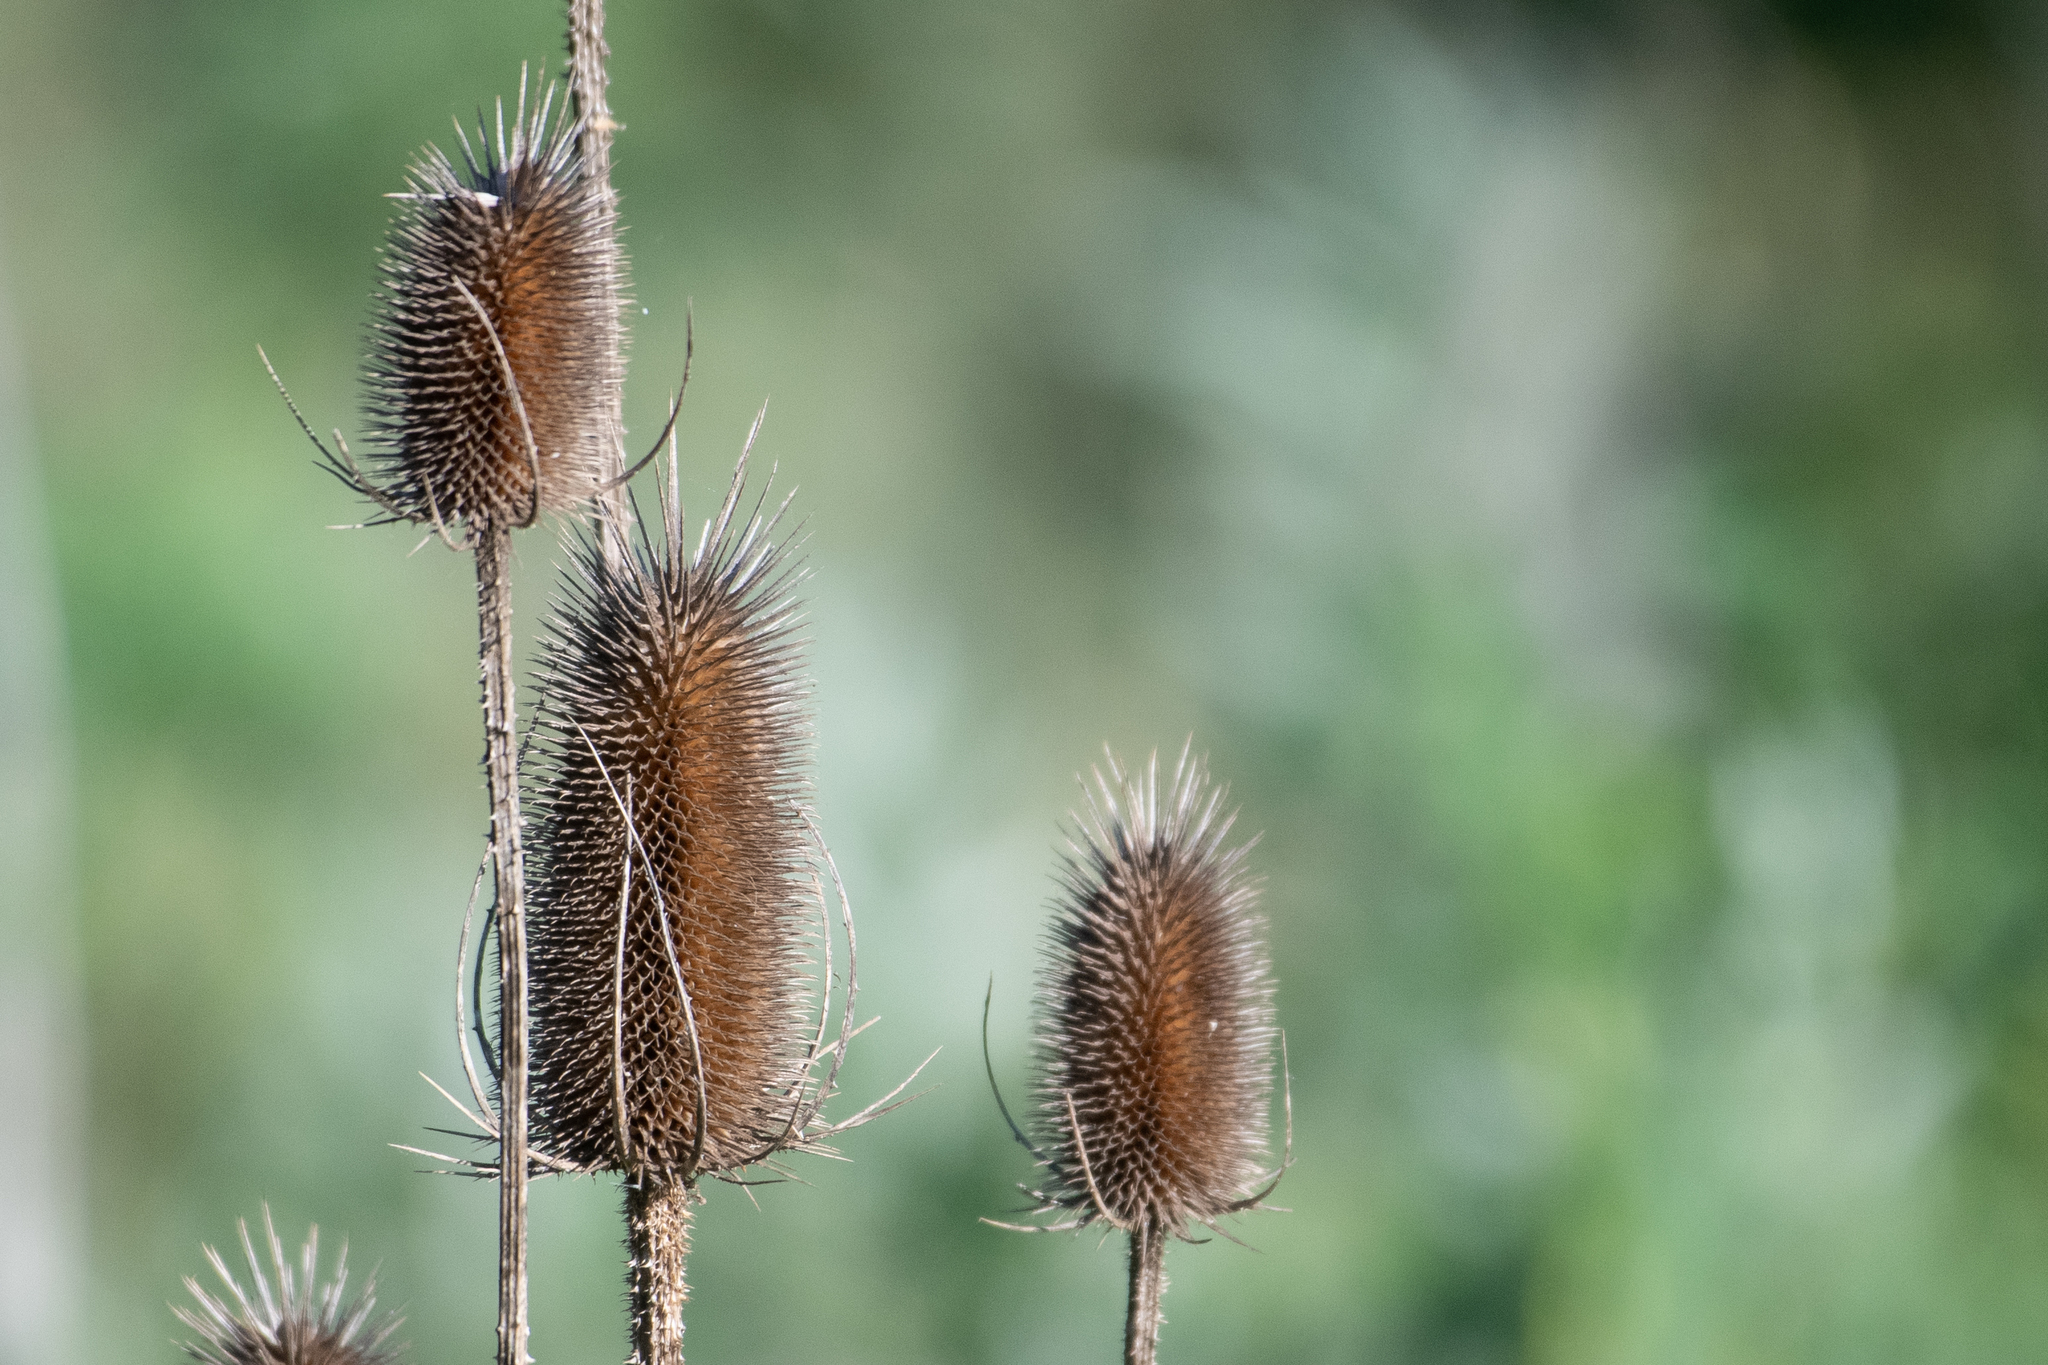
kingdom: Plantae
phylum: Tracheophyta
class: Magnoliopsida
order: Dipsacales
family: Caprifoliaceae
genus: Dipsacus
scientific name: Dipsacus fullonum
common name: Teasel
